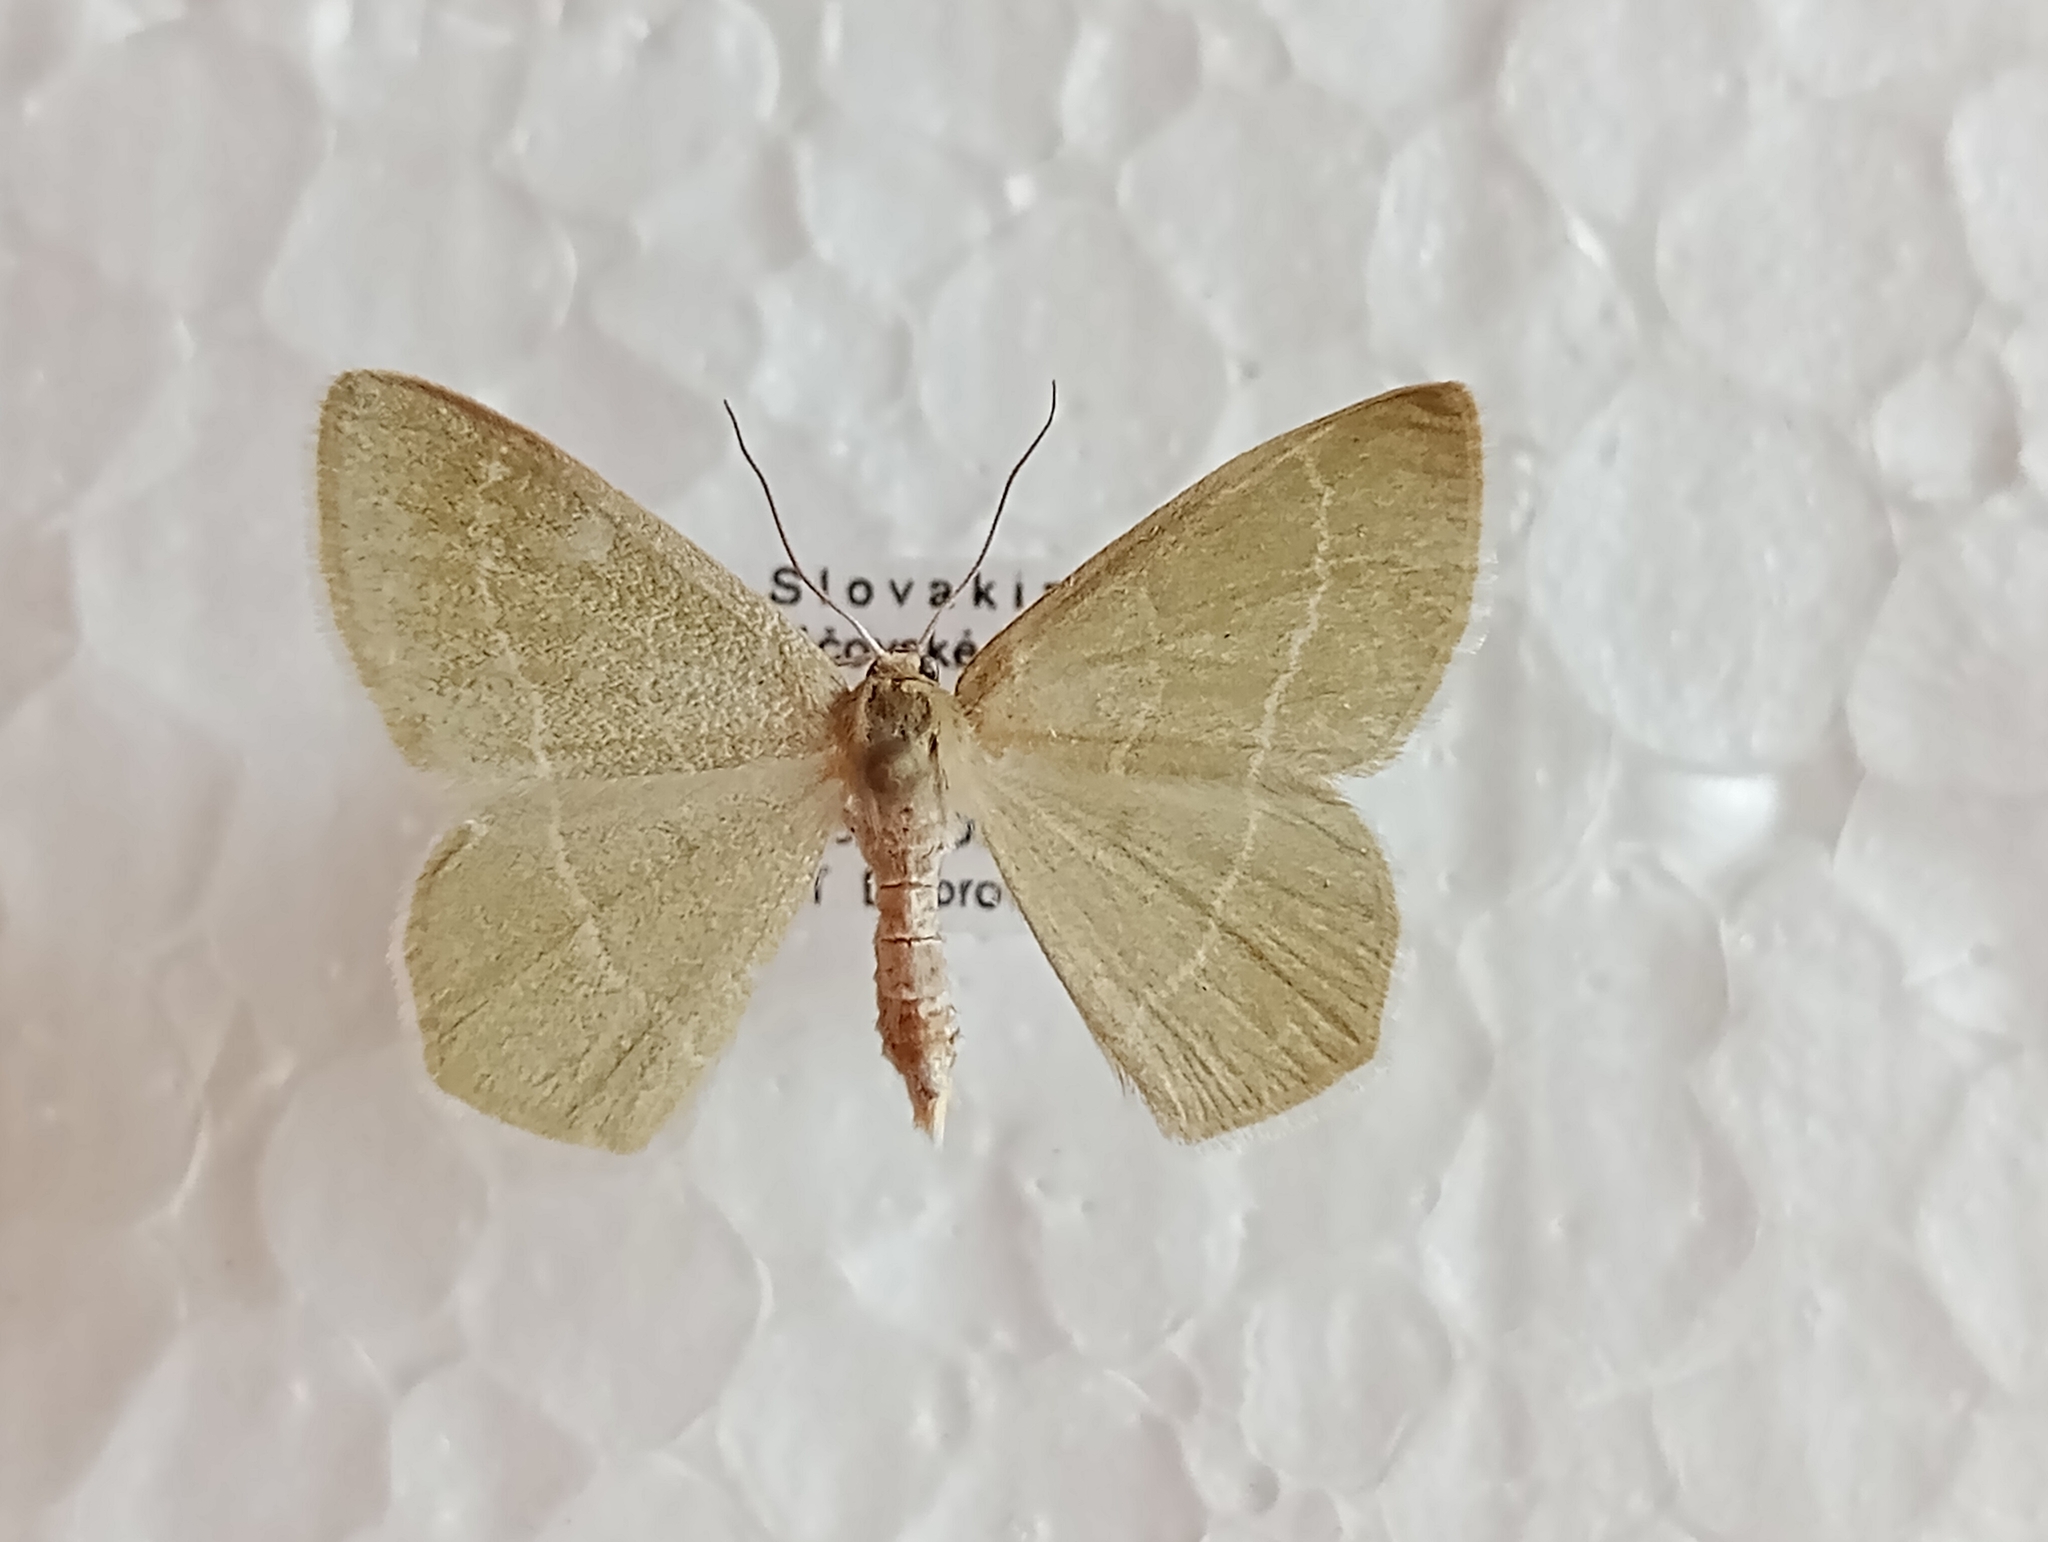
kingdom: Animalia
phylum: Arthropoda
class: Insecta
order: Lepidoptera
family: Geometridae
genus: Chlorissa
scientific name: Chlorissa cloraria
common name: Southern grass emerald
